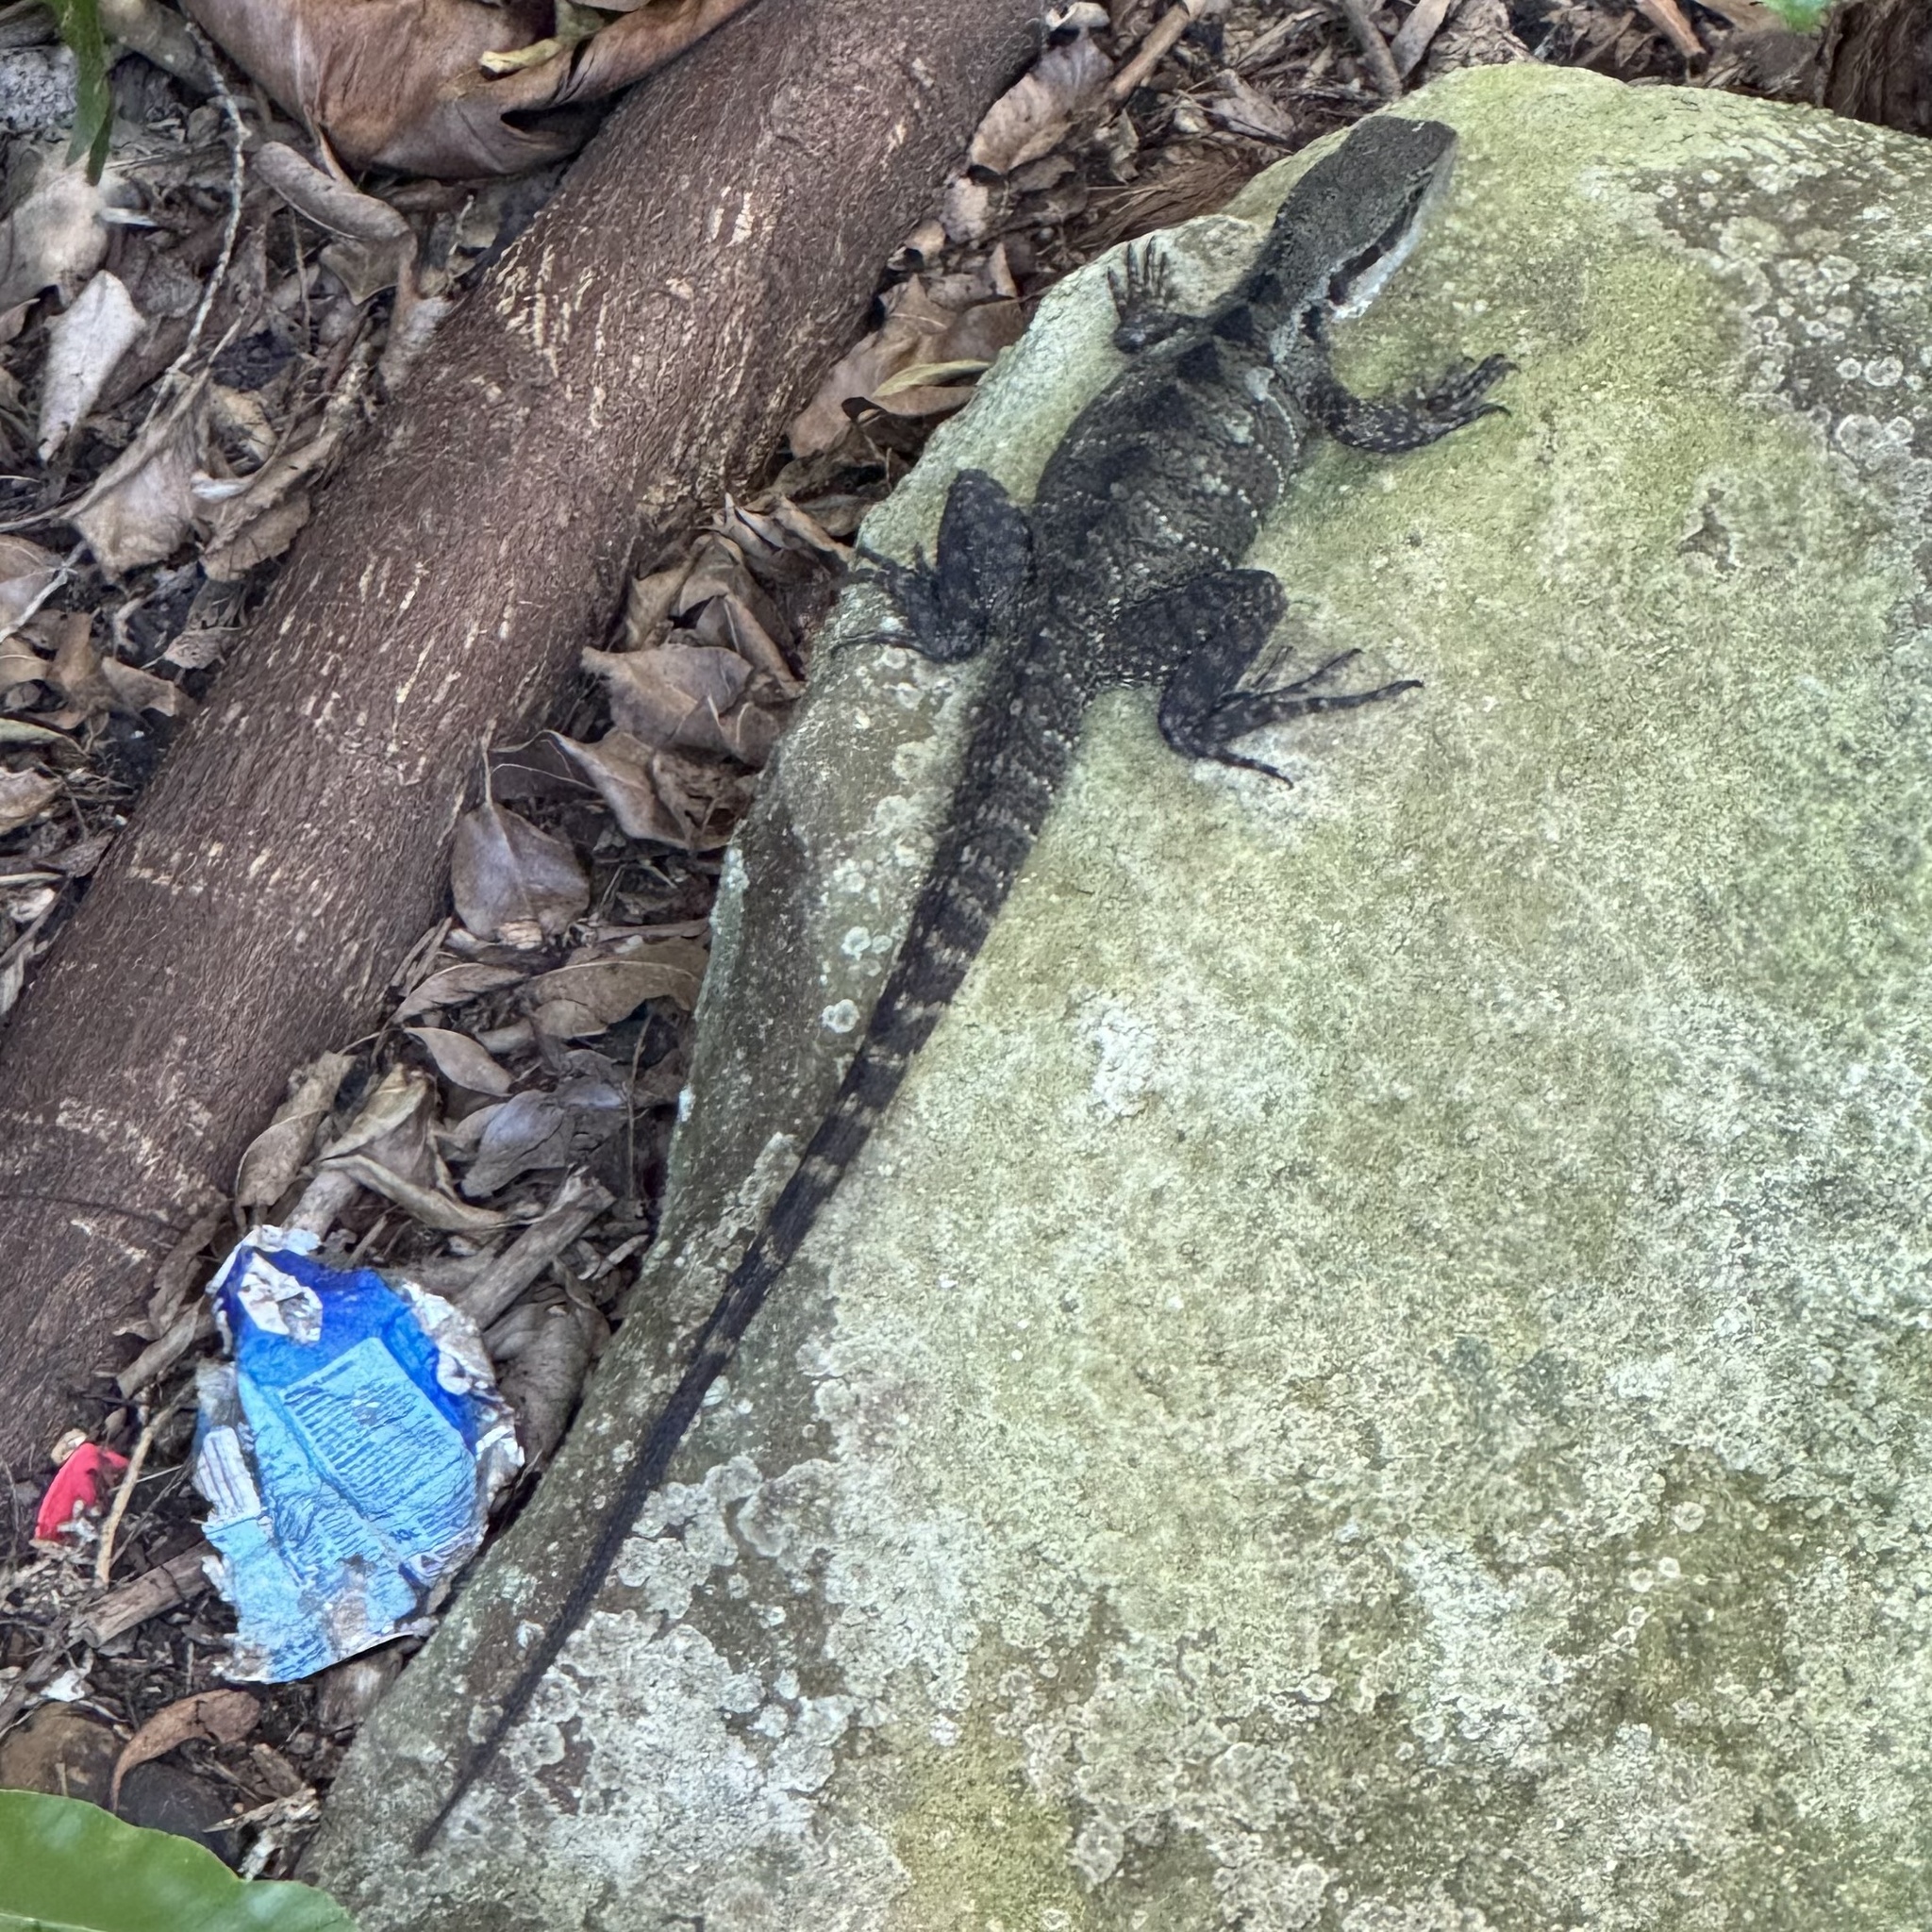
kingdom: Animalia
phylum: Chordata
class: Squamata
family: Agamidae
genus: Intellagama
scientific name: Intellagama lesueurii
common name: Eastern water dragon
